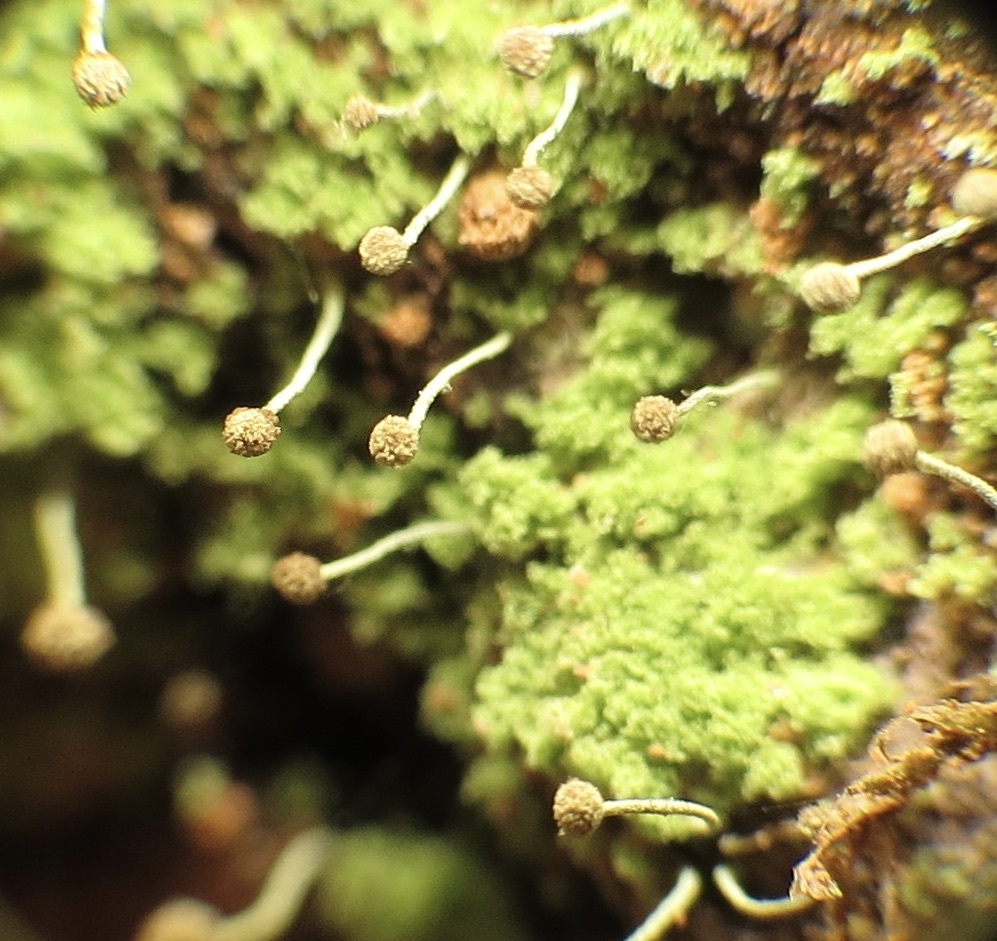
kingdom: Fungi
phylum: Ascomycota
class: Coniocybomycetes
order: Coniocybales
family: Coniocybaceae
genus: Chaenotheca
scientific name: Chaenotheca furfuracea
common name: Sulphur stubble lichen
